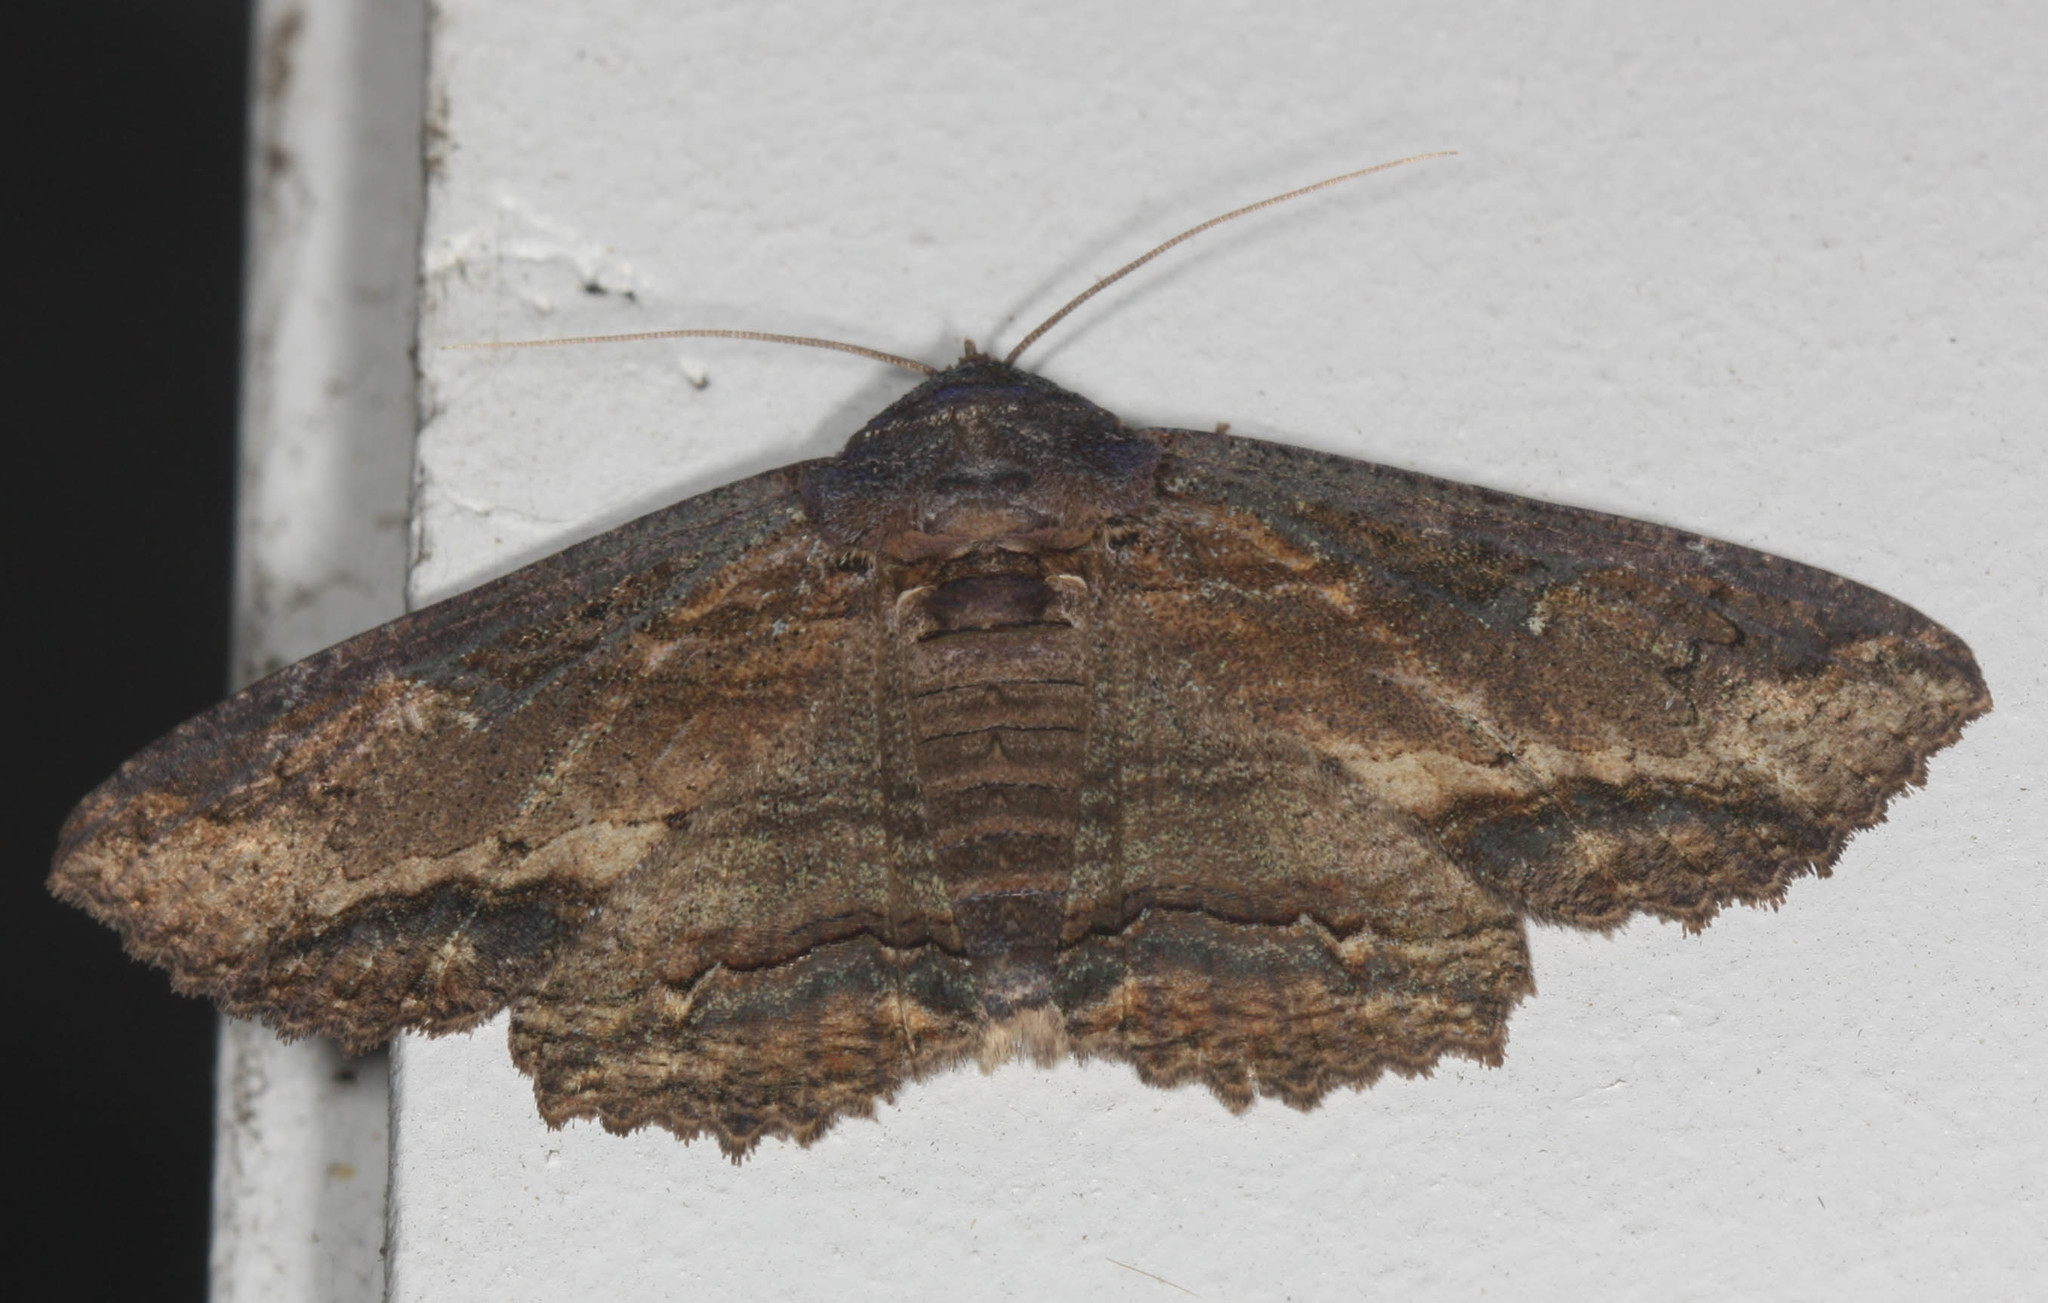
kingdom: Animalia
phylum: Arthropoda
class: Insecta
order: Lepidoptera
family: Erebidae
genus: Zale
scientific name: Zale lunata
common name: Lunate zale moth
